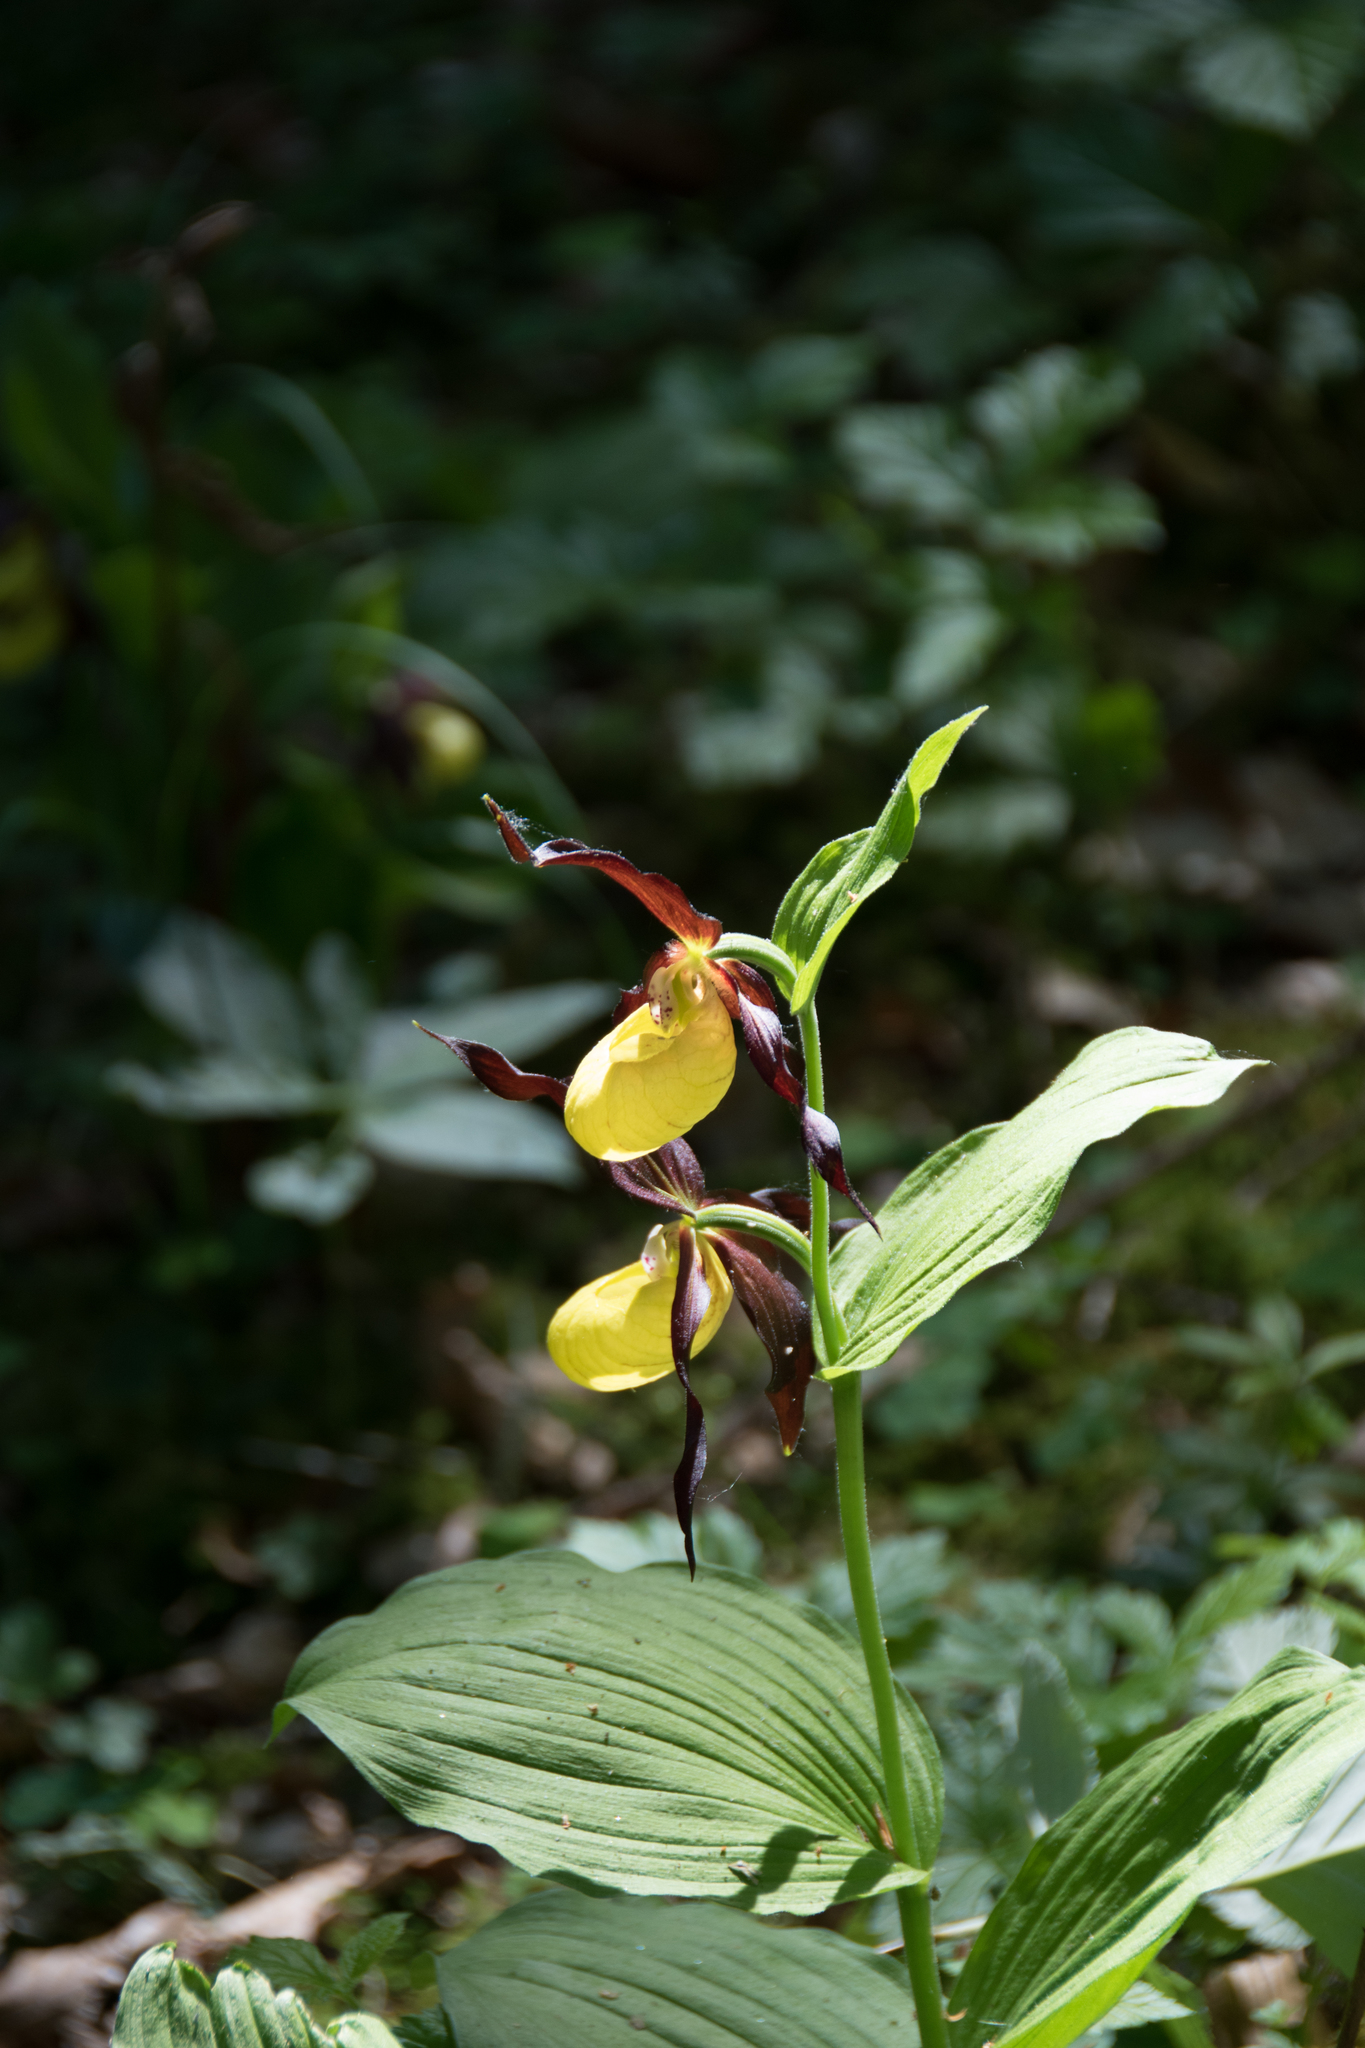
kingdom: Plantae
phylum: Tracheophyta
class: Liliopsida
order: Asparagales
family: Orchidaceae
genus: Cypripedium
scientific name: Cypripedium calceolus
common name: Lady's-slipper
